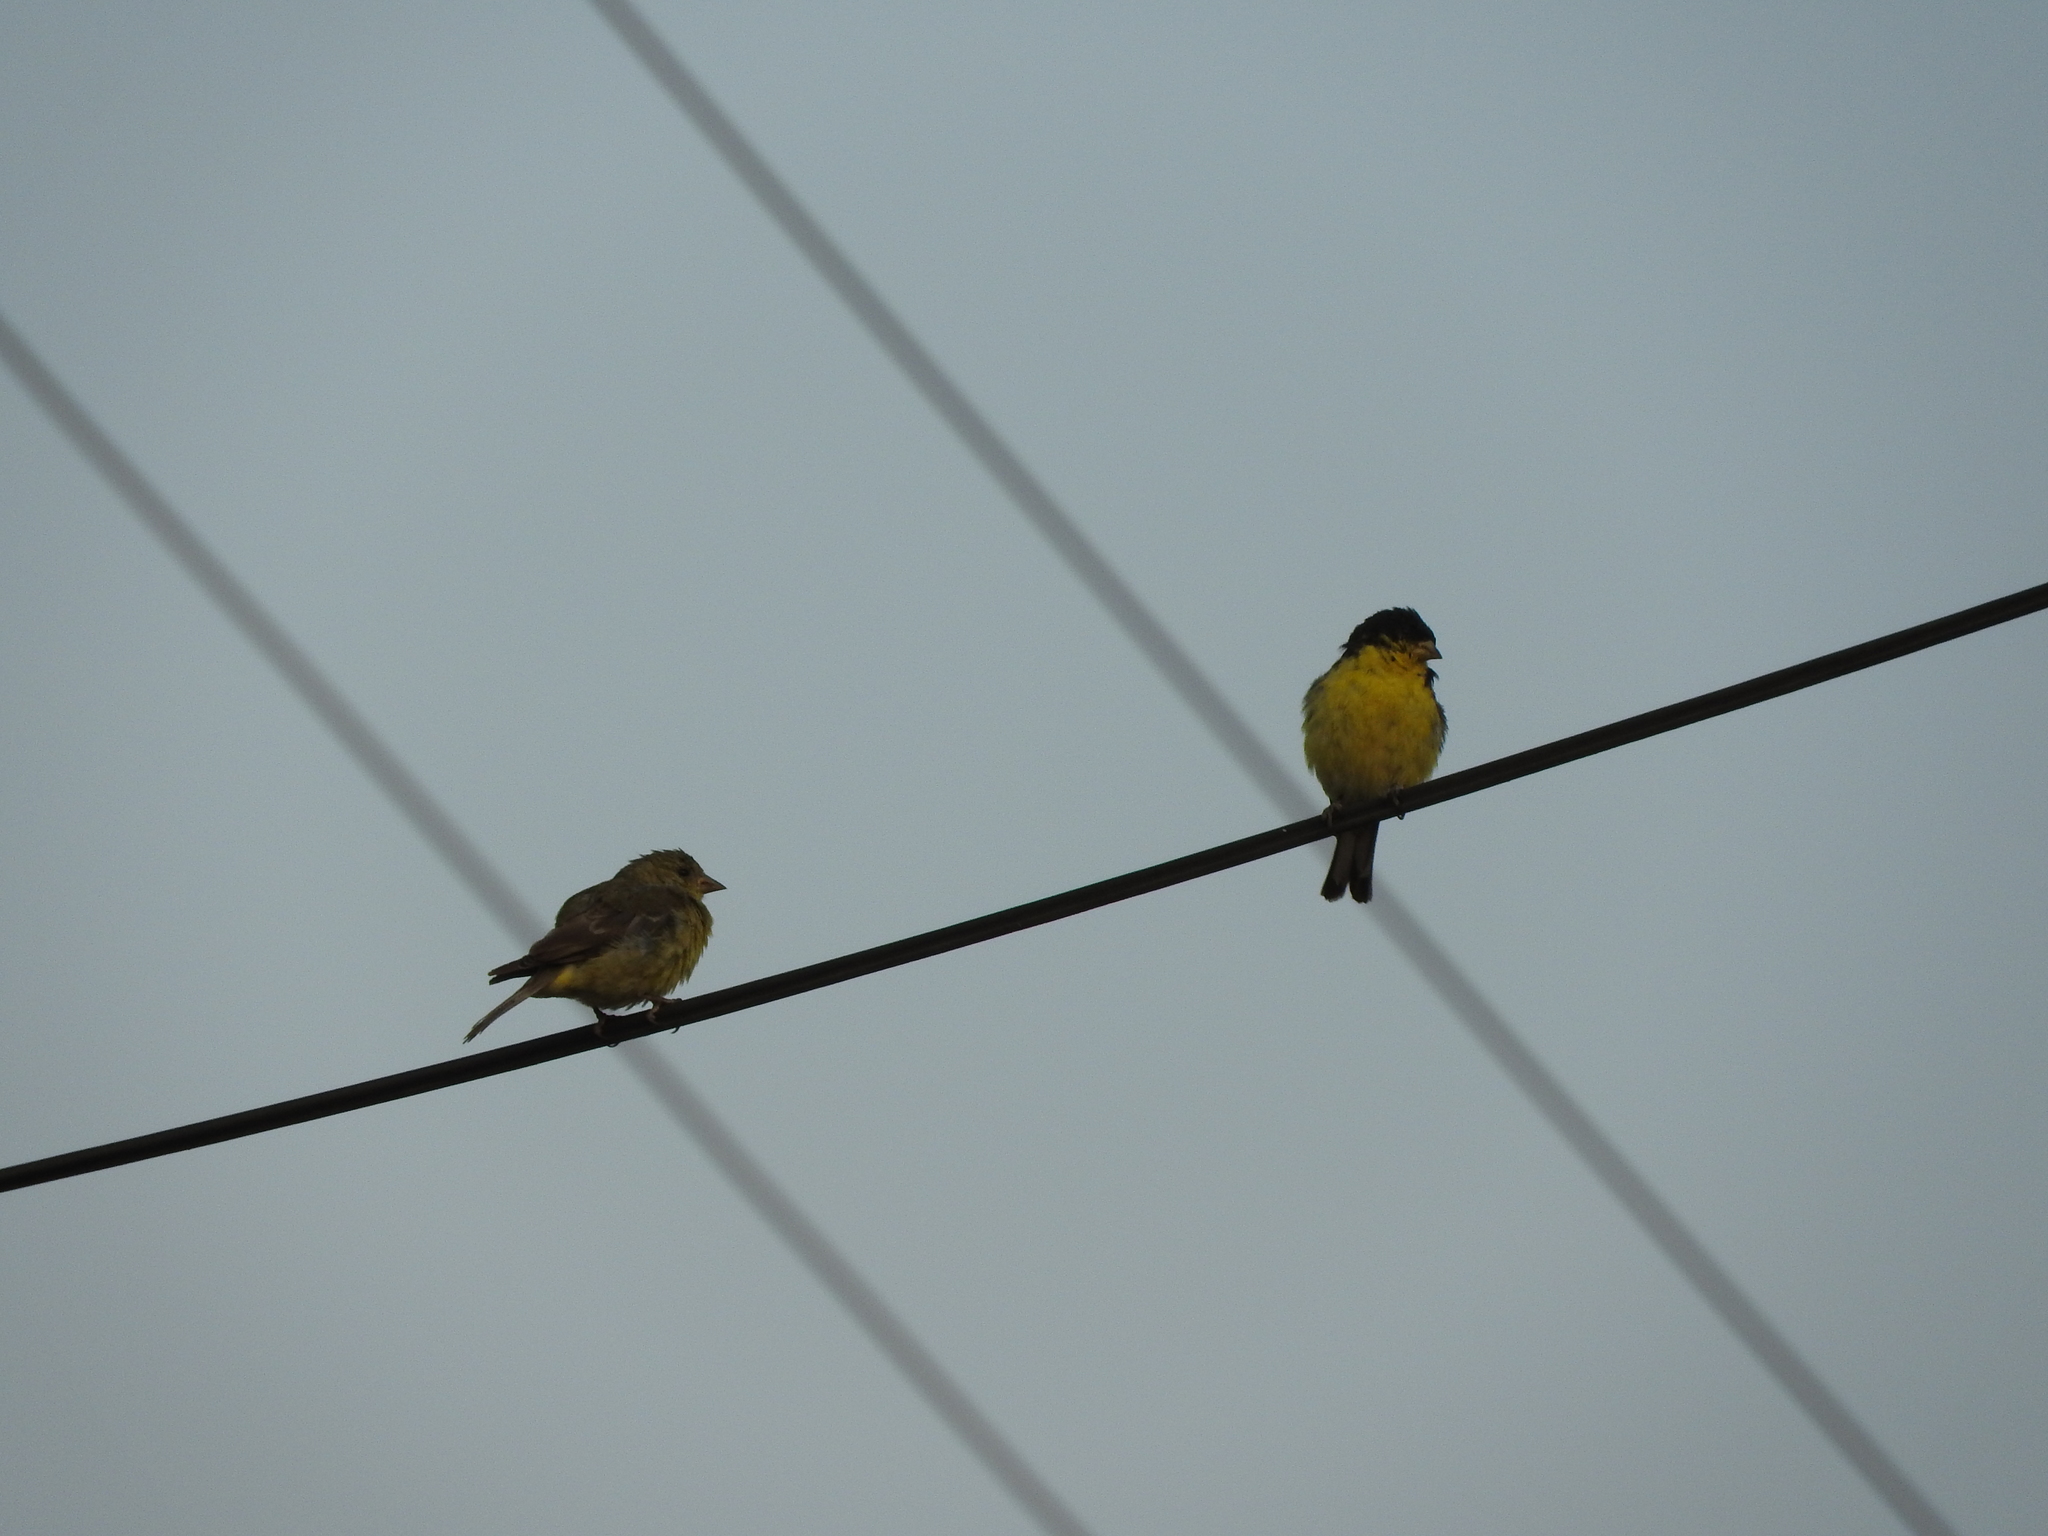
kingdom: Animalia
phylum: Chordata
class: Aves
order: Passeriformes
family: Fringillidae
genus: Spinus
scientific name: Spinus psaltria
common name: Lesser goldfinch
